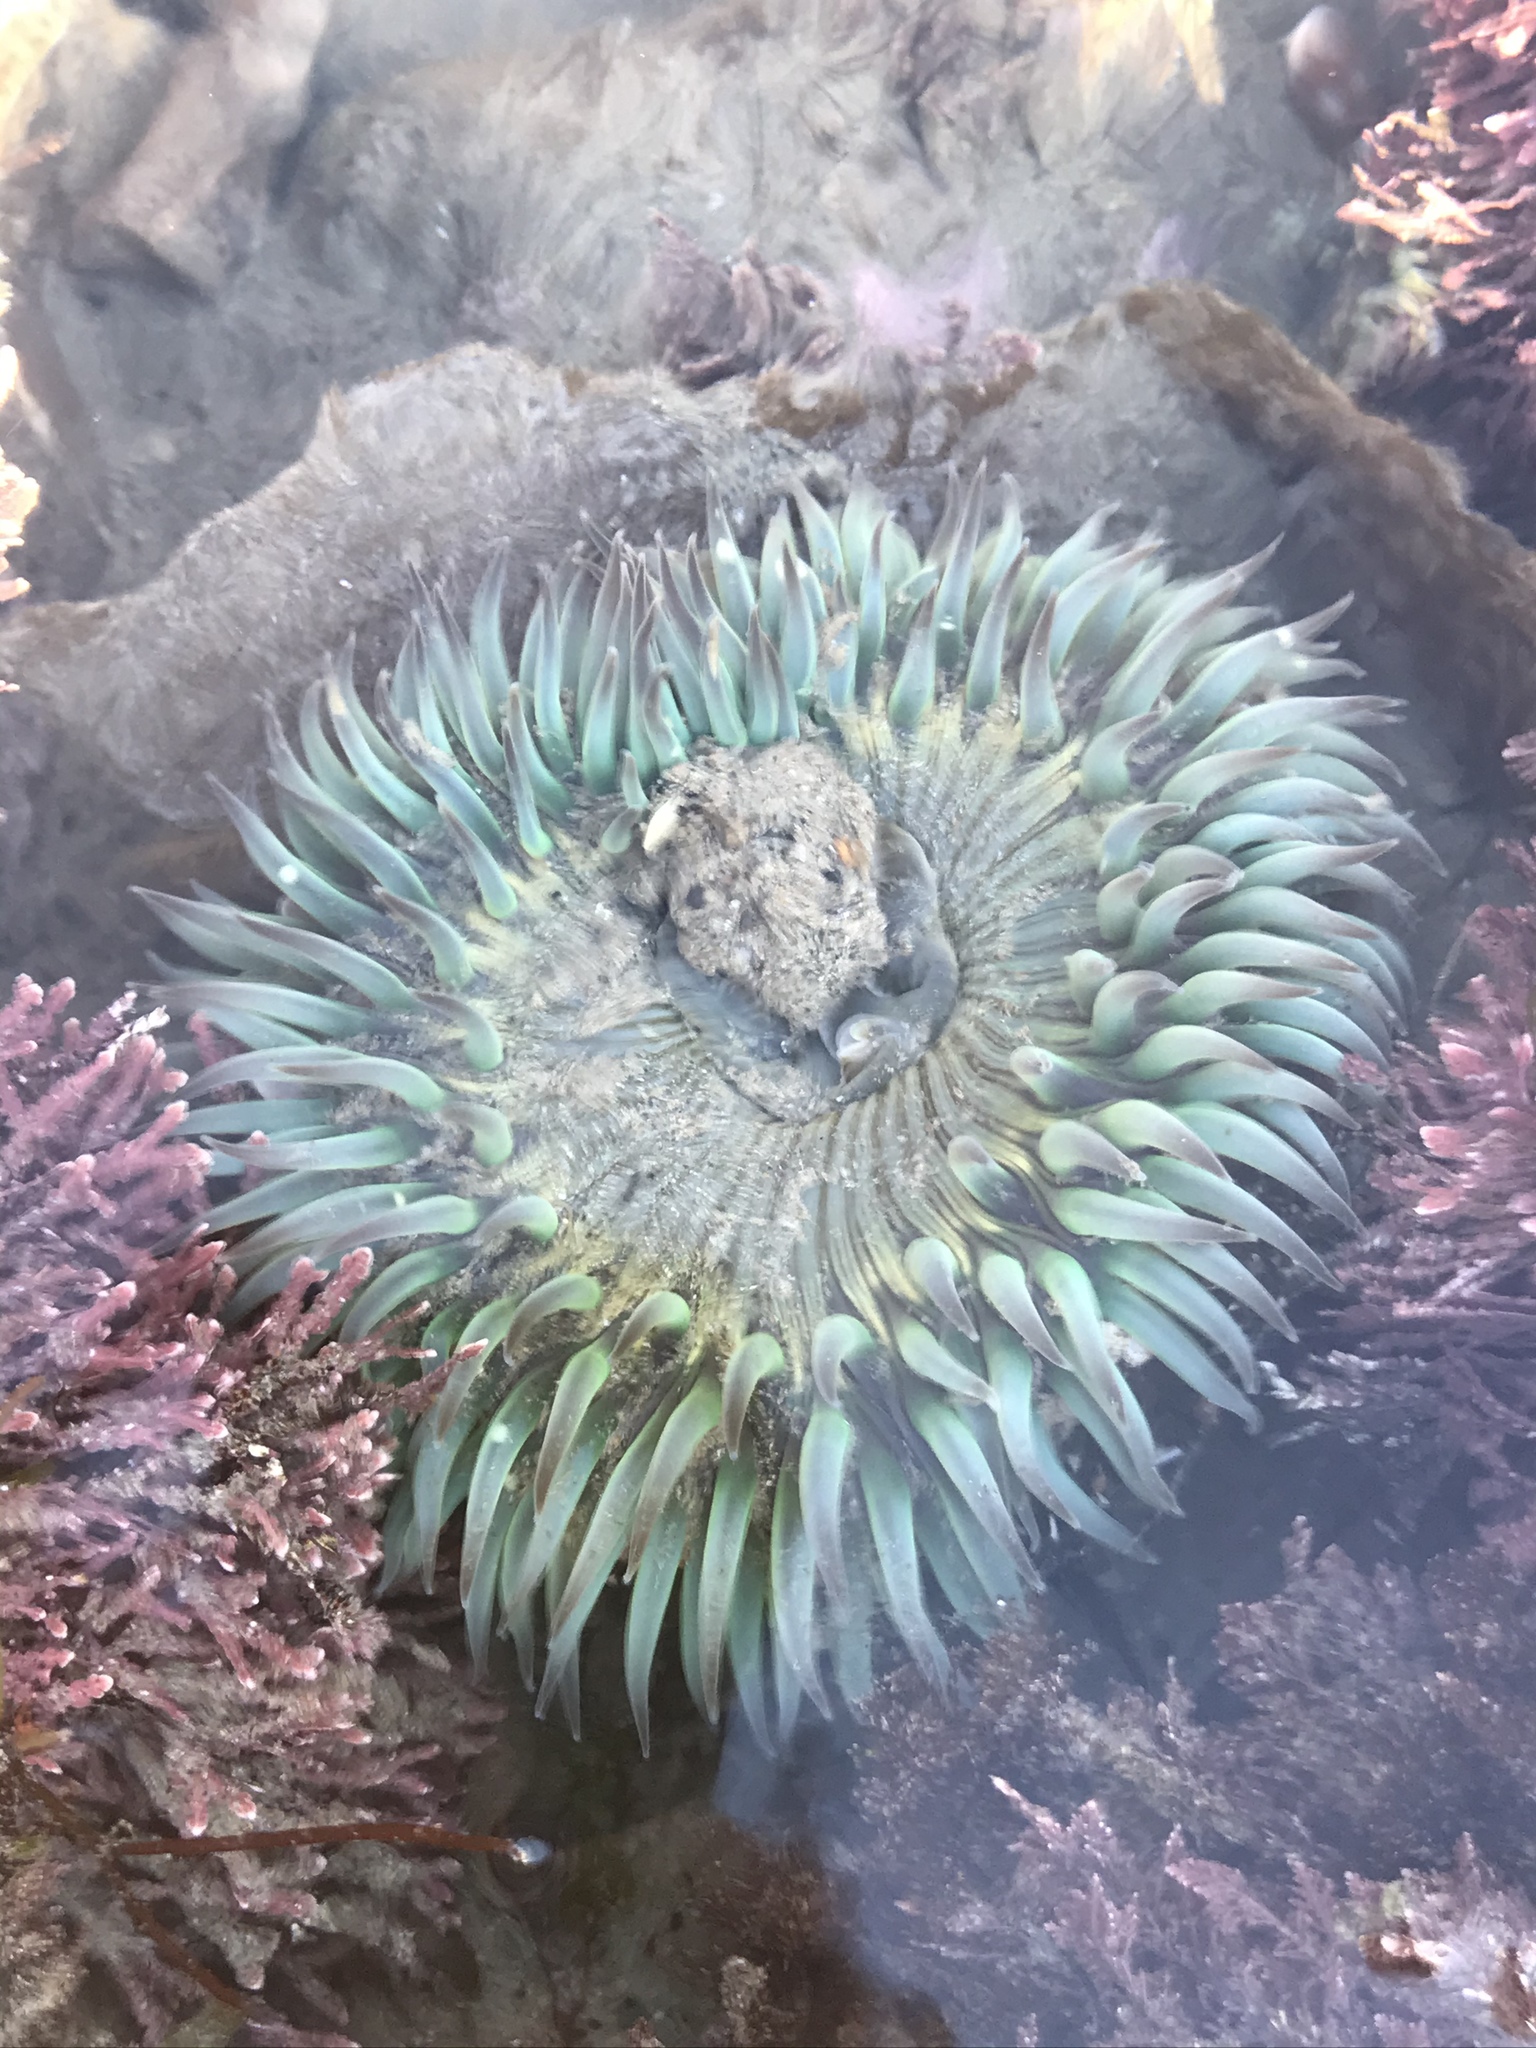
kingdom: Animalia
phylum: Cnidaria
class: Anthozoa
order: Actiniaria
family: Actiniidae
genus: Anthopleura
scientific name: Anthopleura sola
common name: Sun anemone
